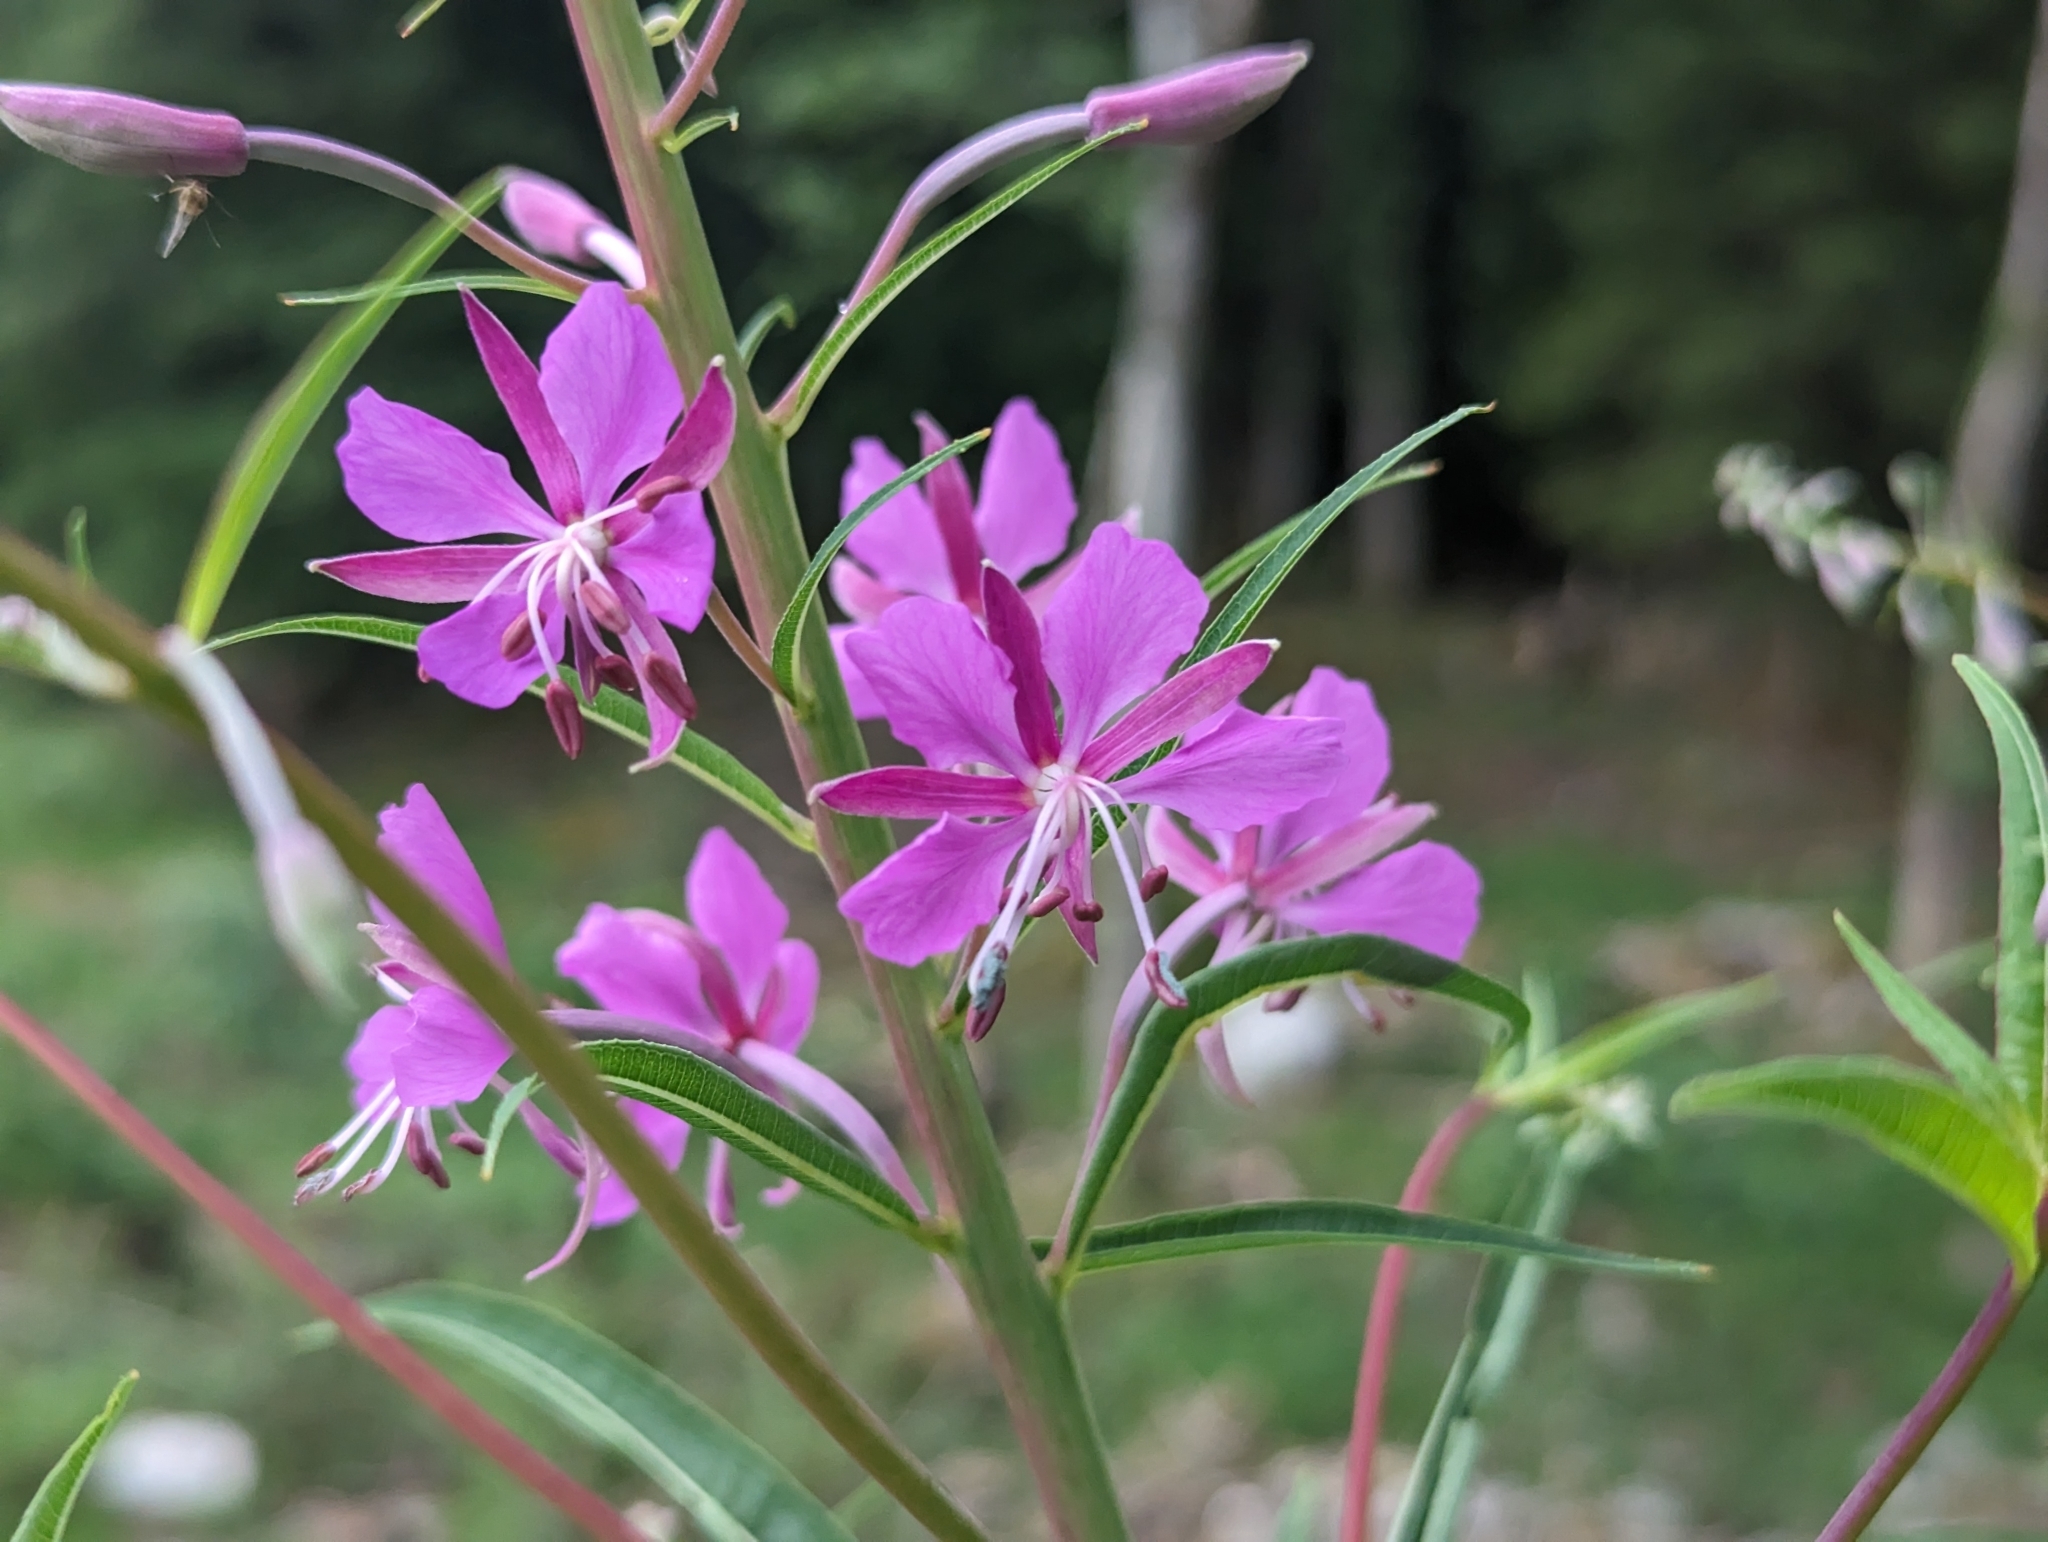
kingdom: Plantae
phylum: Tracheophyta
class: Magnoliopsida
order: Myrtales
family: Onagraceae
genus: Chamaenerion
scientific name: Chamaenerion angustifolium
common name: Fireweed
